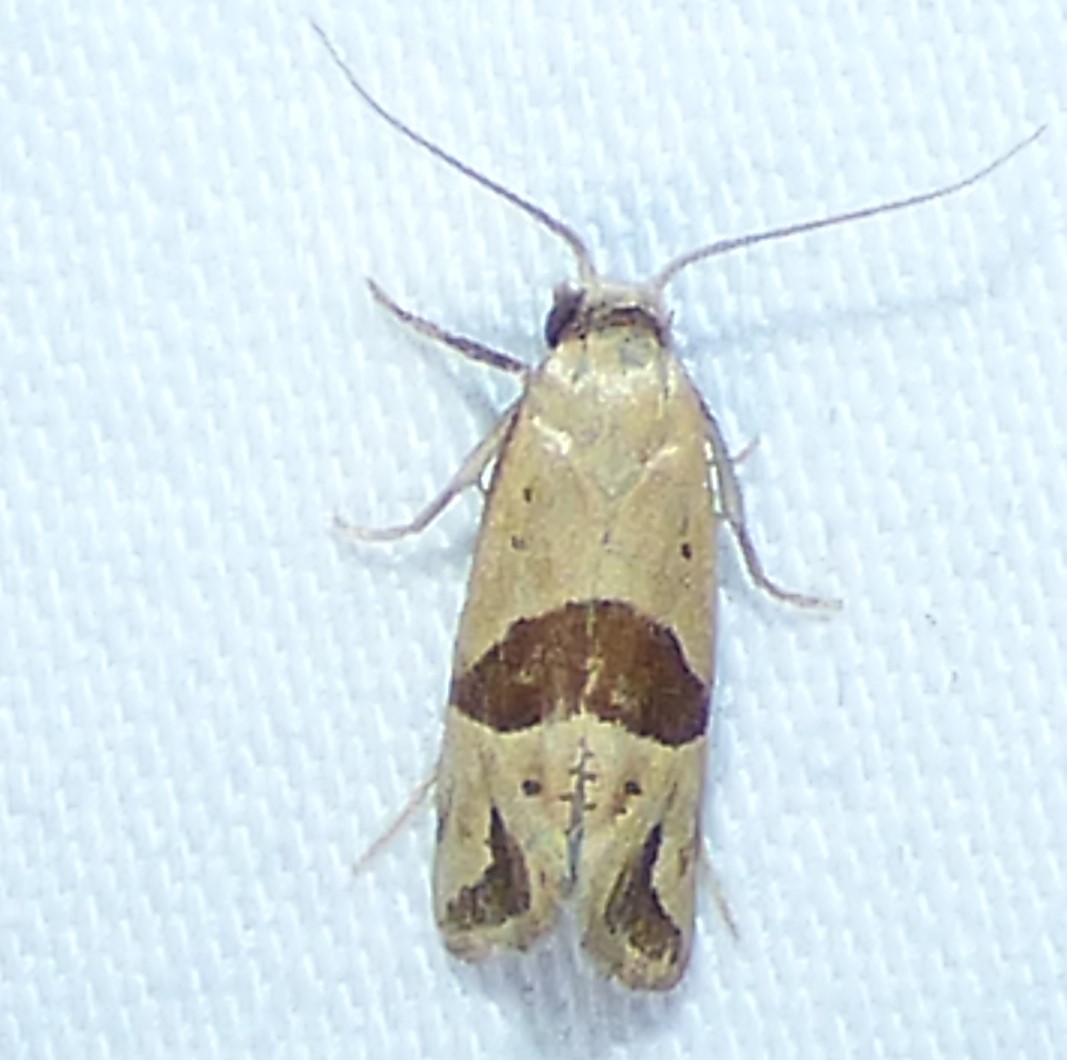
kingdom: Animalia
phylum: Arthropoda
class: Insecta
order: Lepidoptera
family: Tortricidae
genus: Eugnosta
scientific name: Eugnosta sartana
